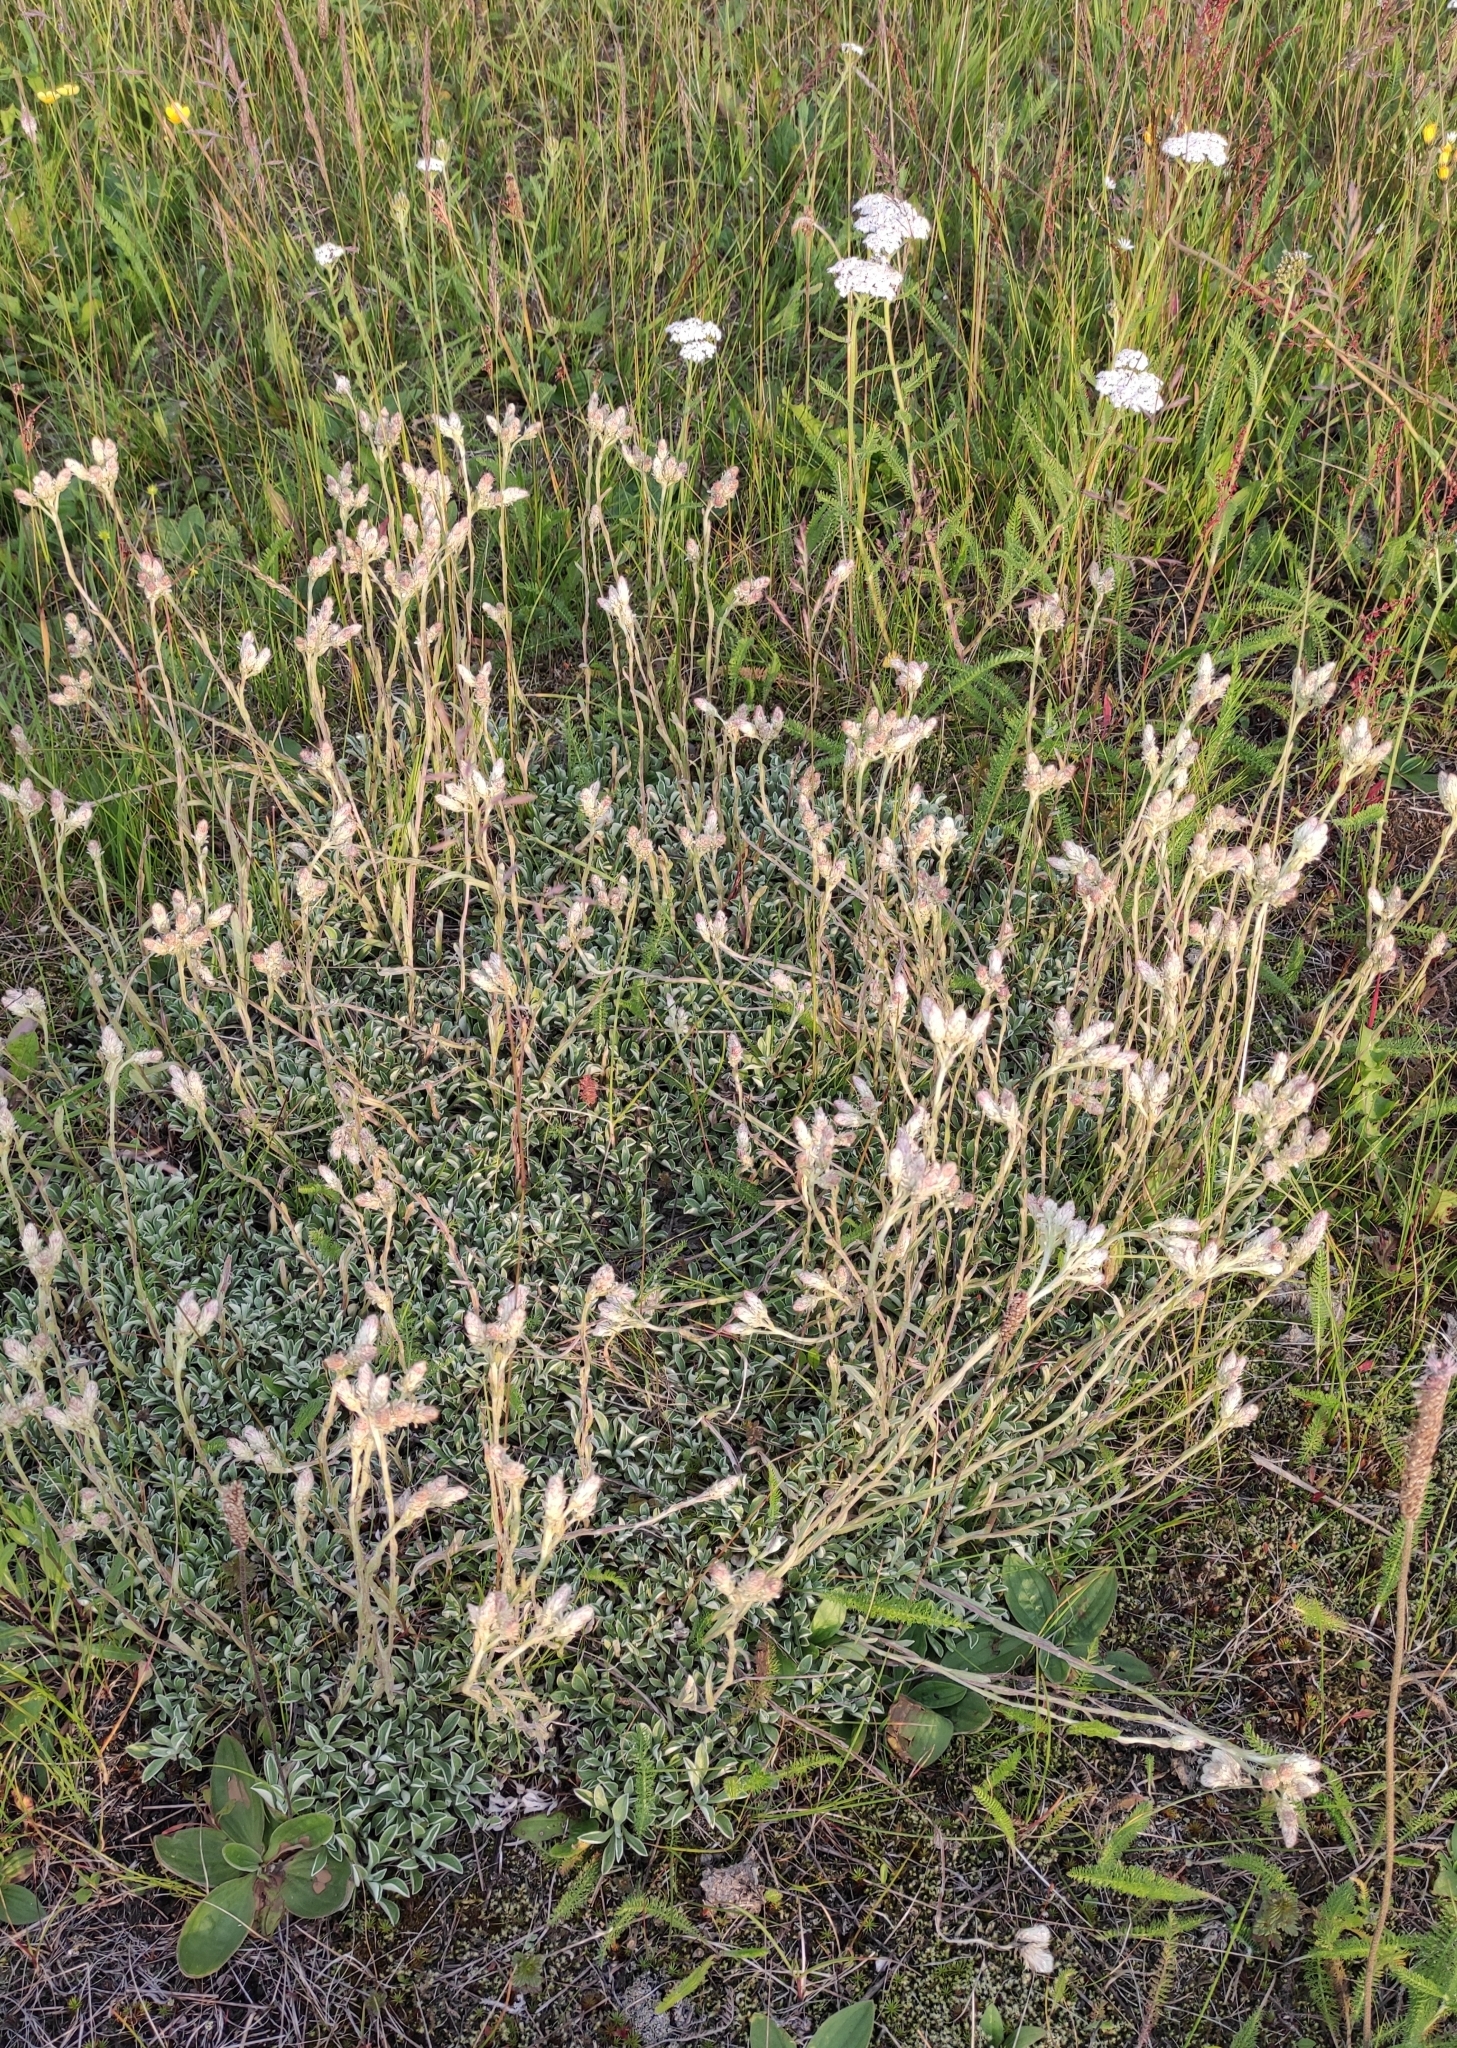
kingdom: Plantae
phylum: Tracheophyta
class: Magnoliopsida
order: Asterales
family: Asteraceae
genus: Antennaria
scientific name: Antennaria dioica
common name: Mountain everlasting
